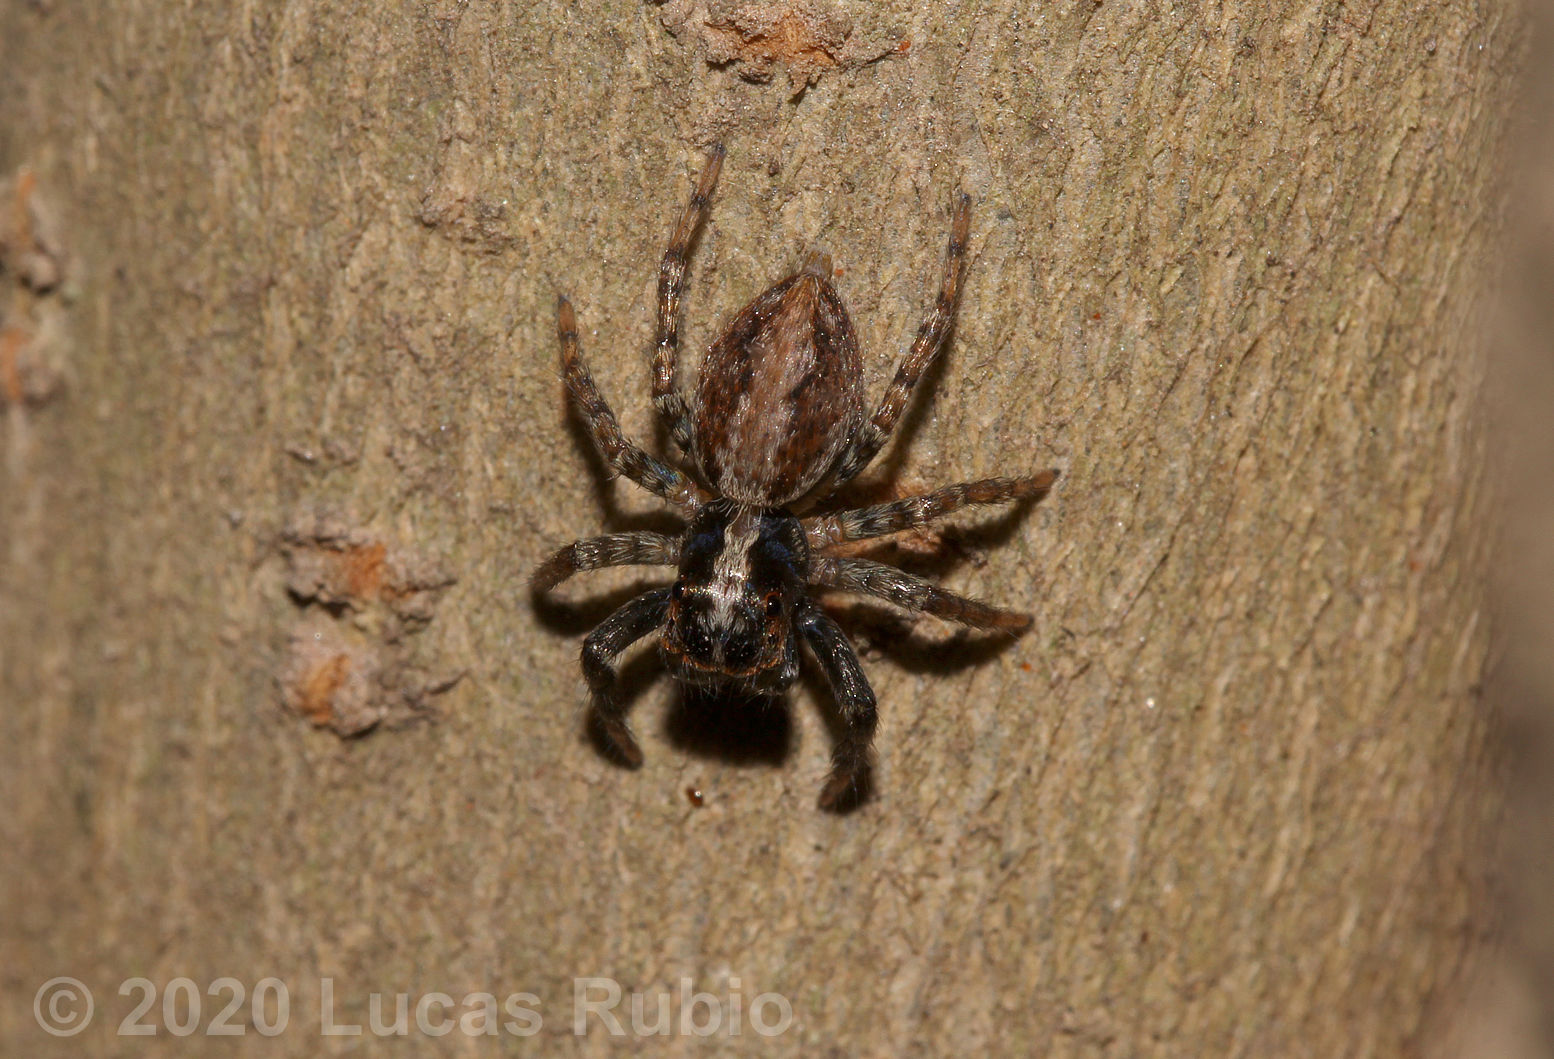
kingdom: Animalia
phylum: Arthropoda
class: Arachnida
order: Araneae
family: Salticidae
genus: Asaphobelis
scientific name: Asaphobelis physonychus
